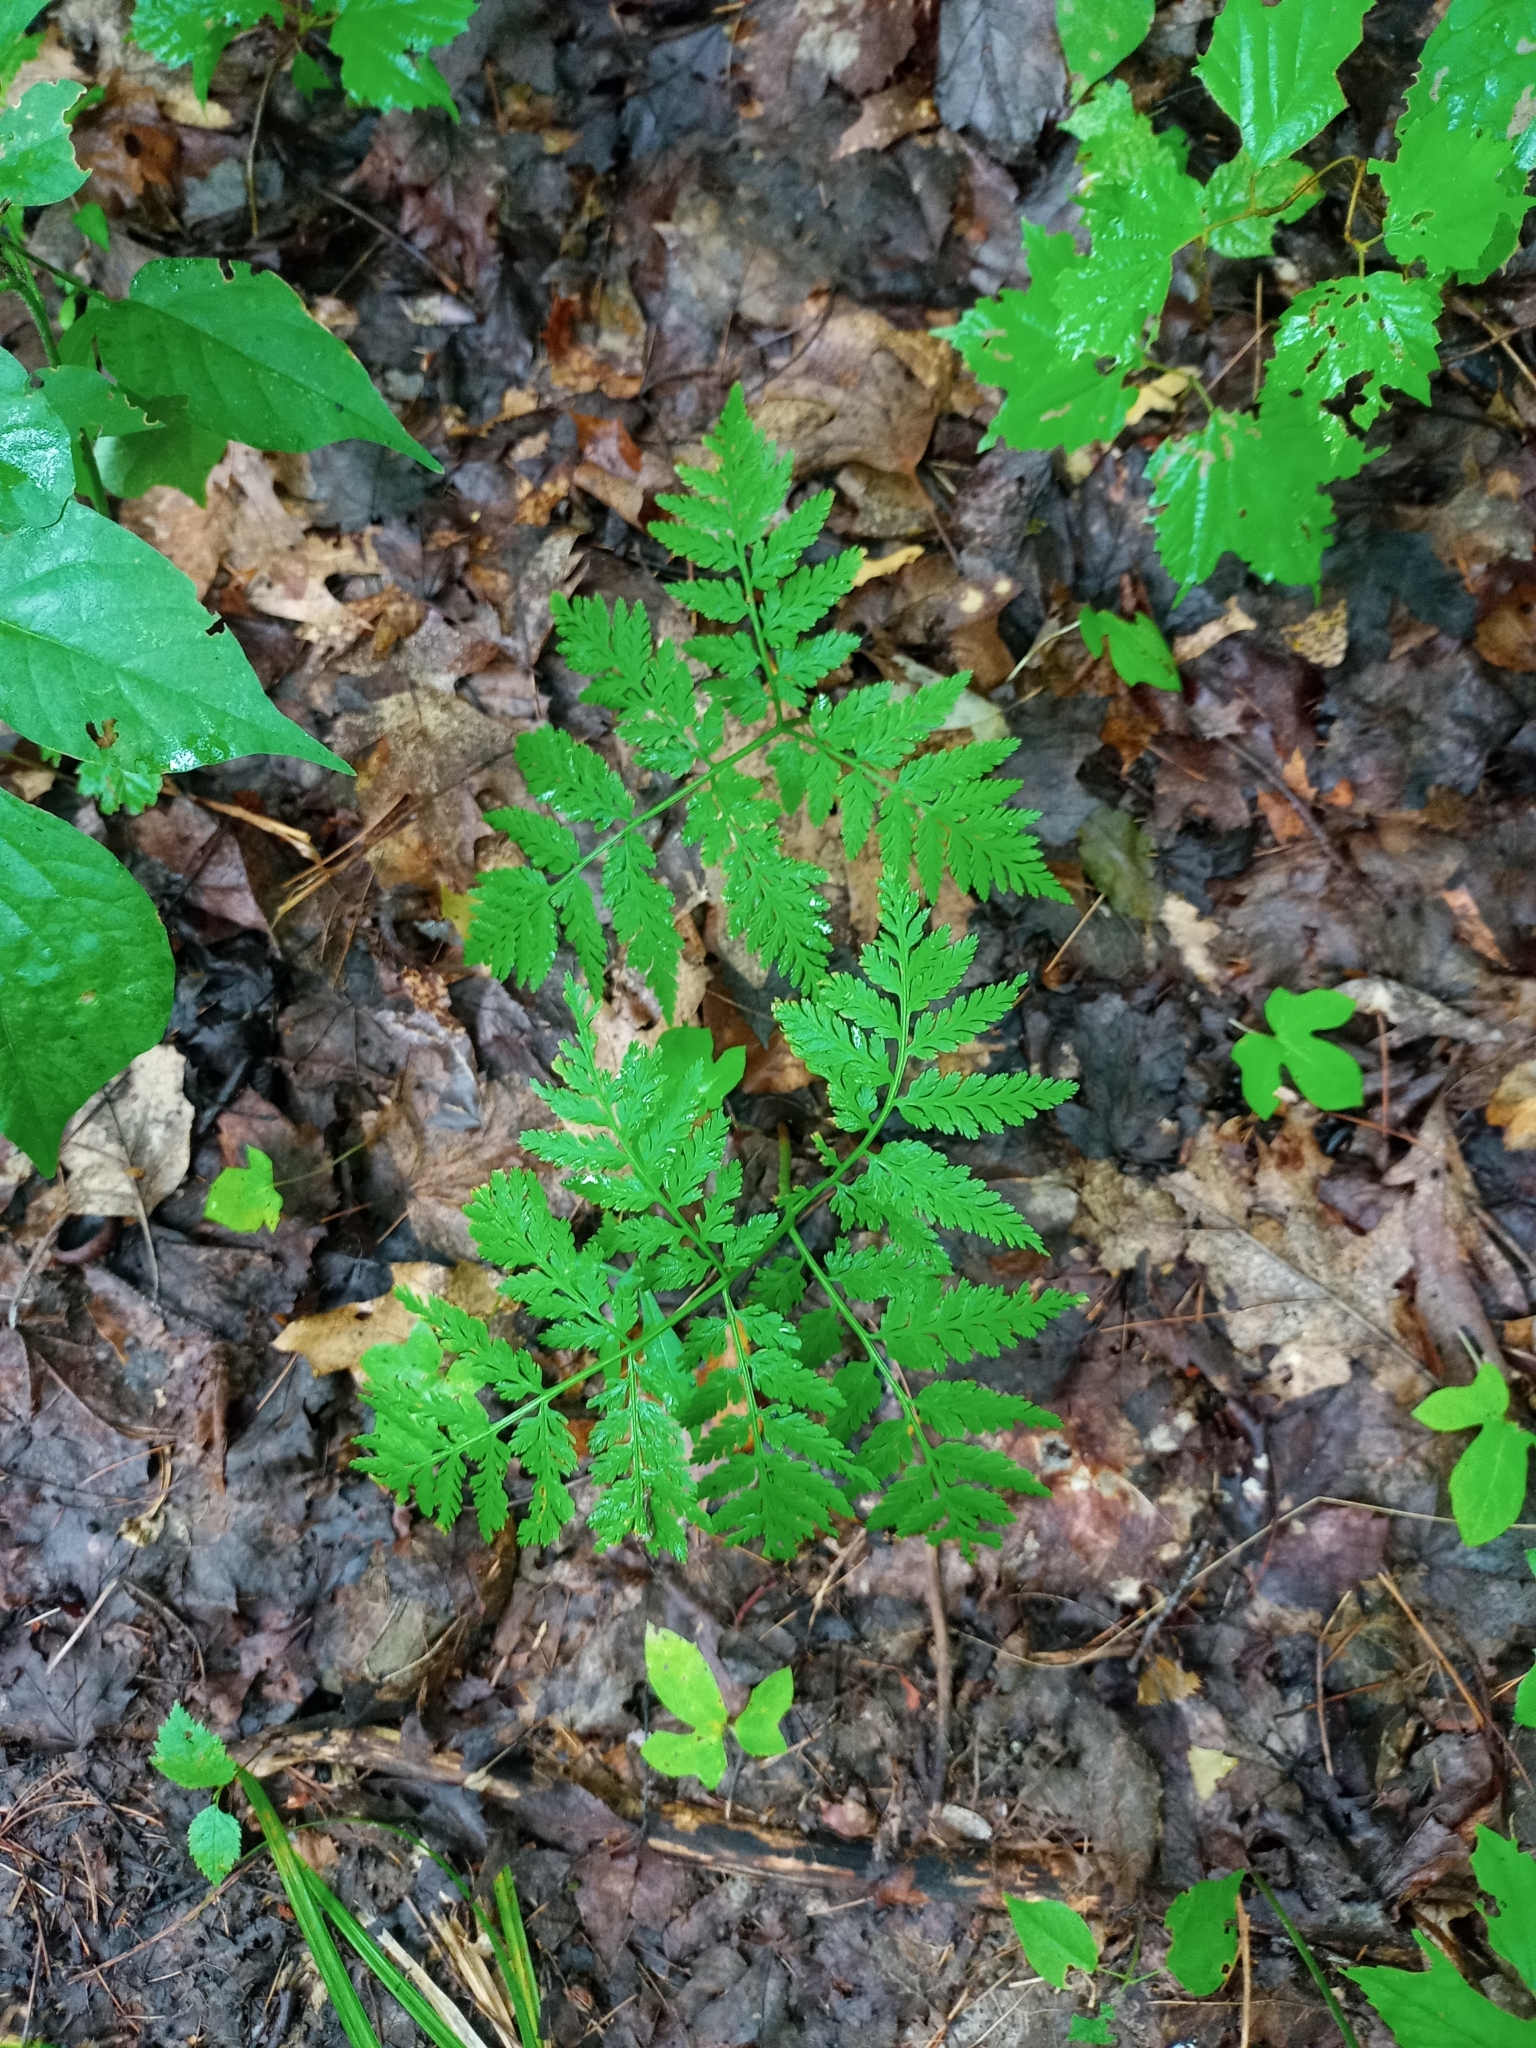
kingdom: Plantae
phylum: Tracheophyta
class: Polypodiopsida
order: Ophioglossales
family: Ophioglossaceae
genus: Botrypus
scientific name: Botrypus virginianus
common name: Common grapefern
